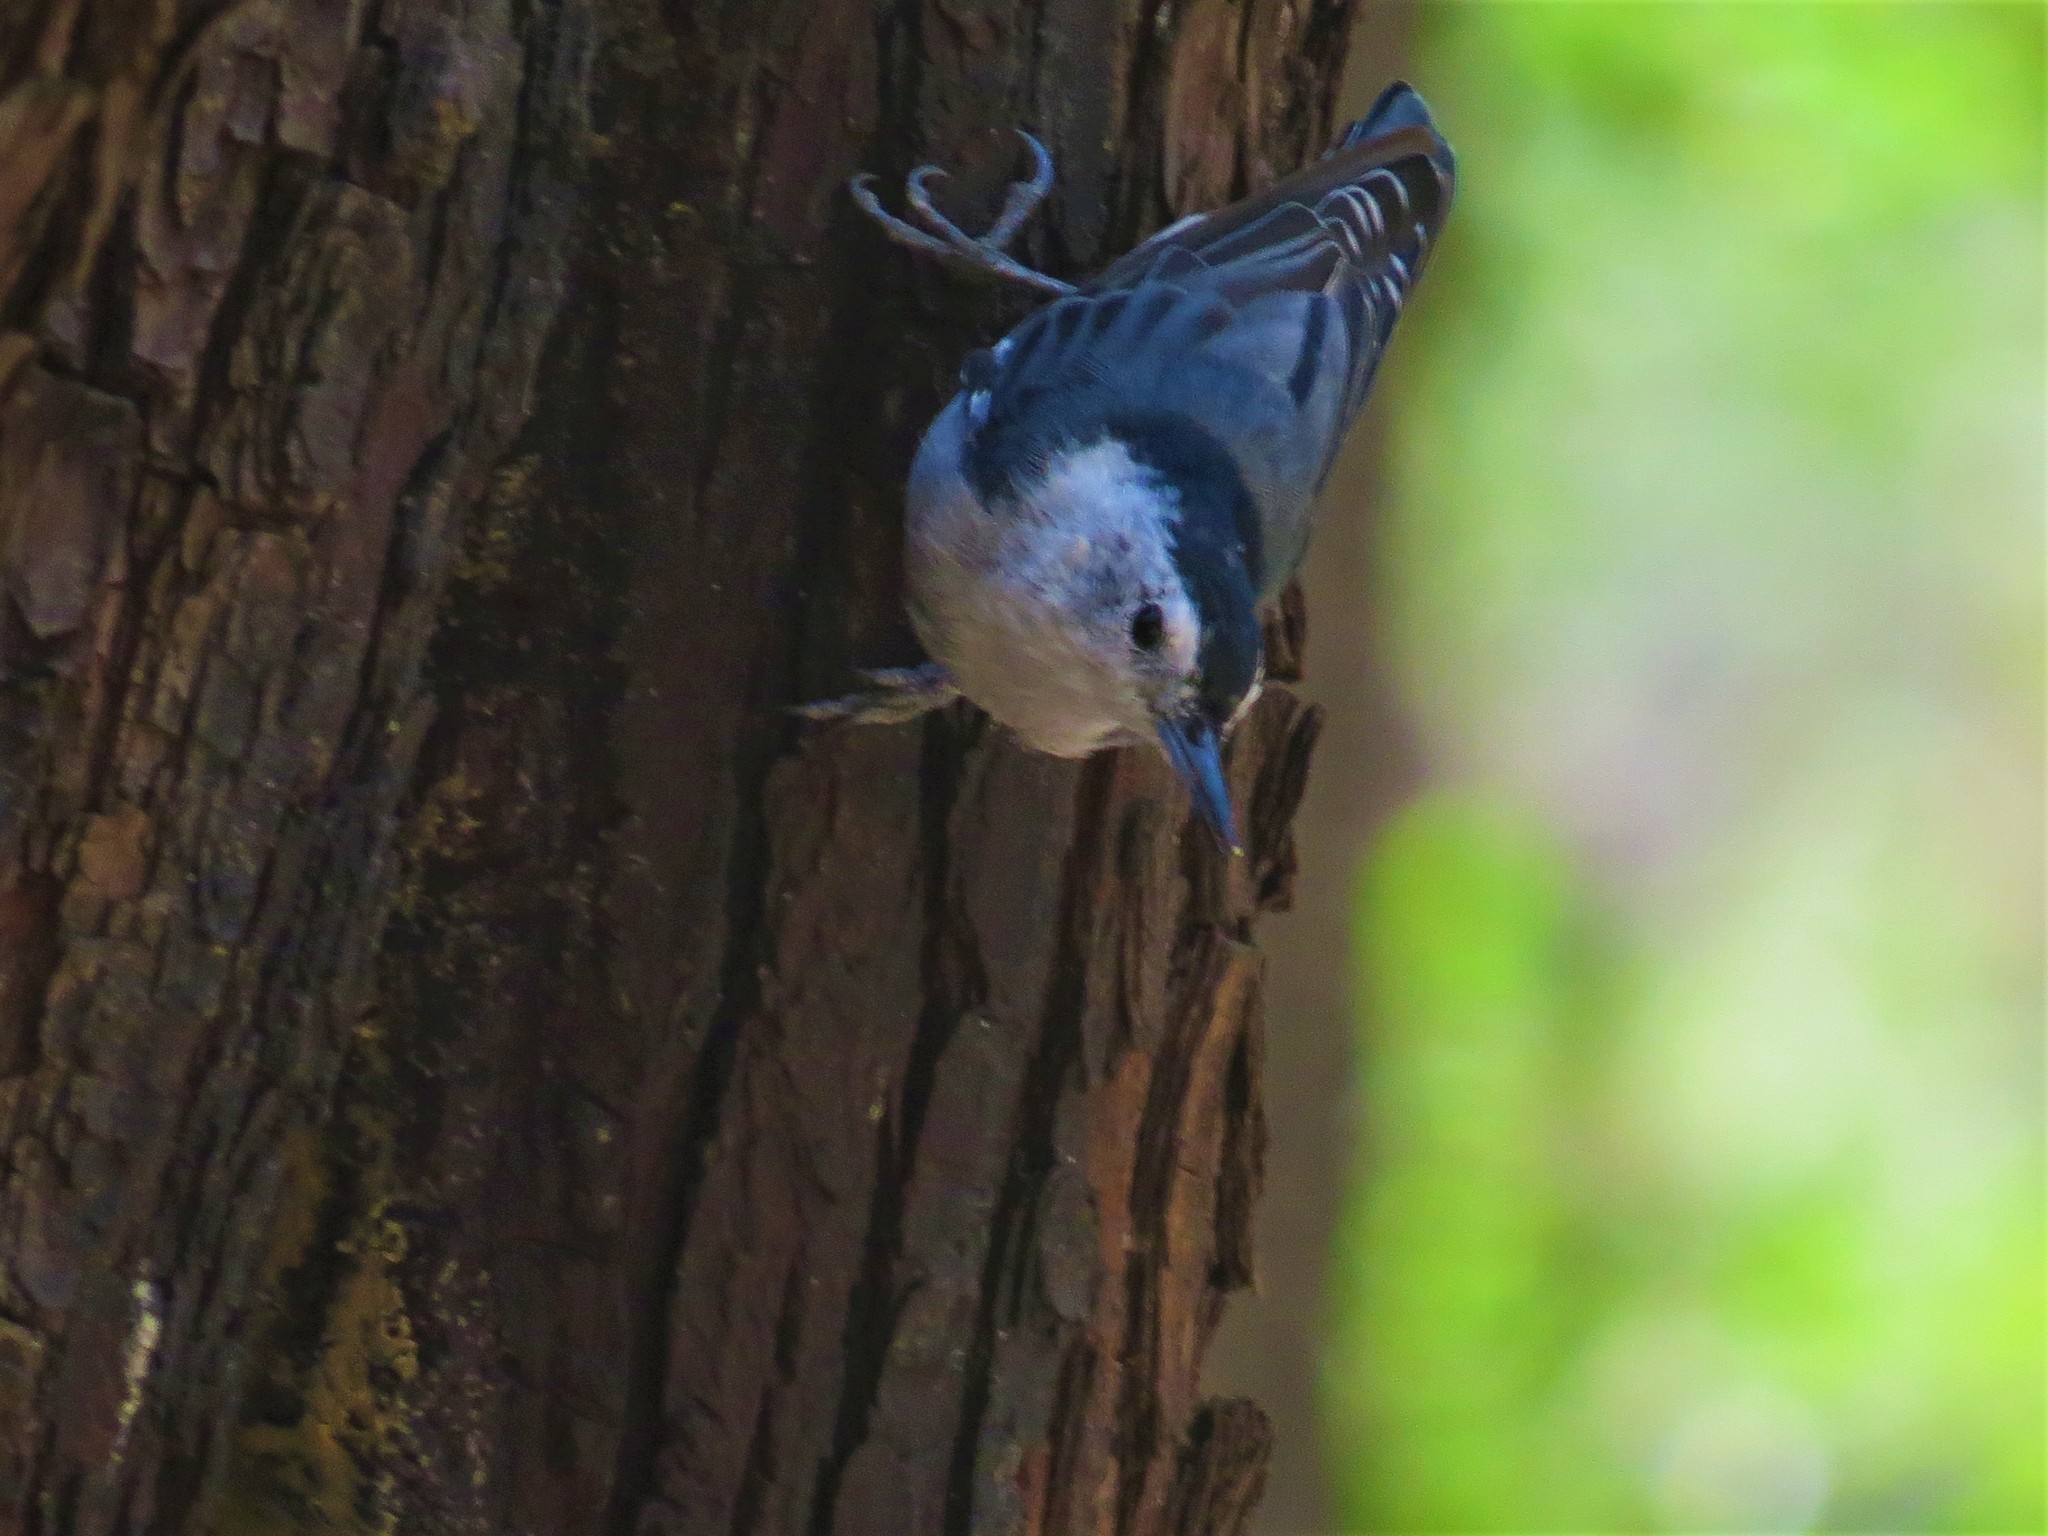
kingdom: Animalia
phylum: Chordata
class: Aves
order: Passeriformes
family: Sittidae
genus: Sitta
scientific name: Sitta carolinensis
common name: White-breasted nuthatch
